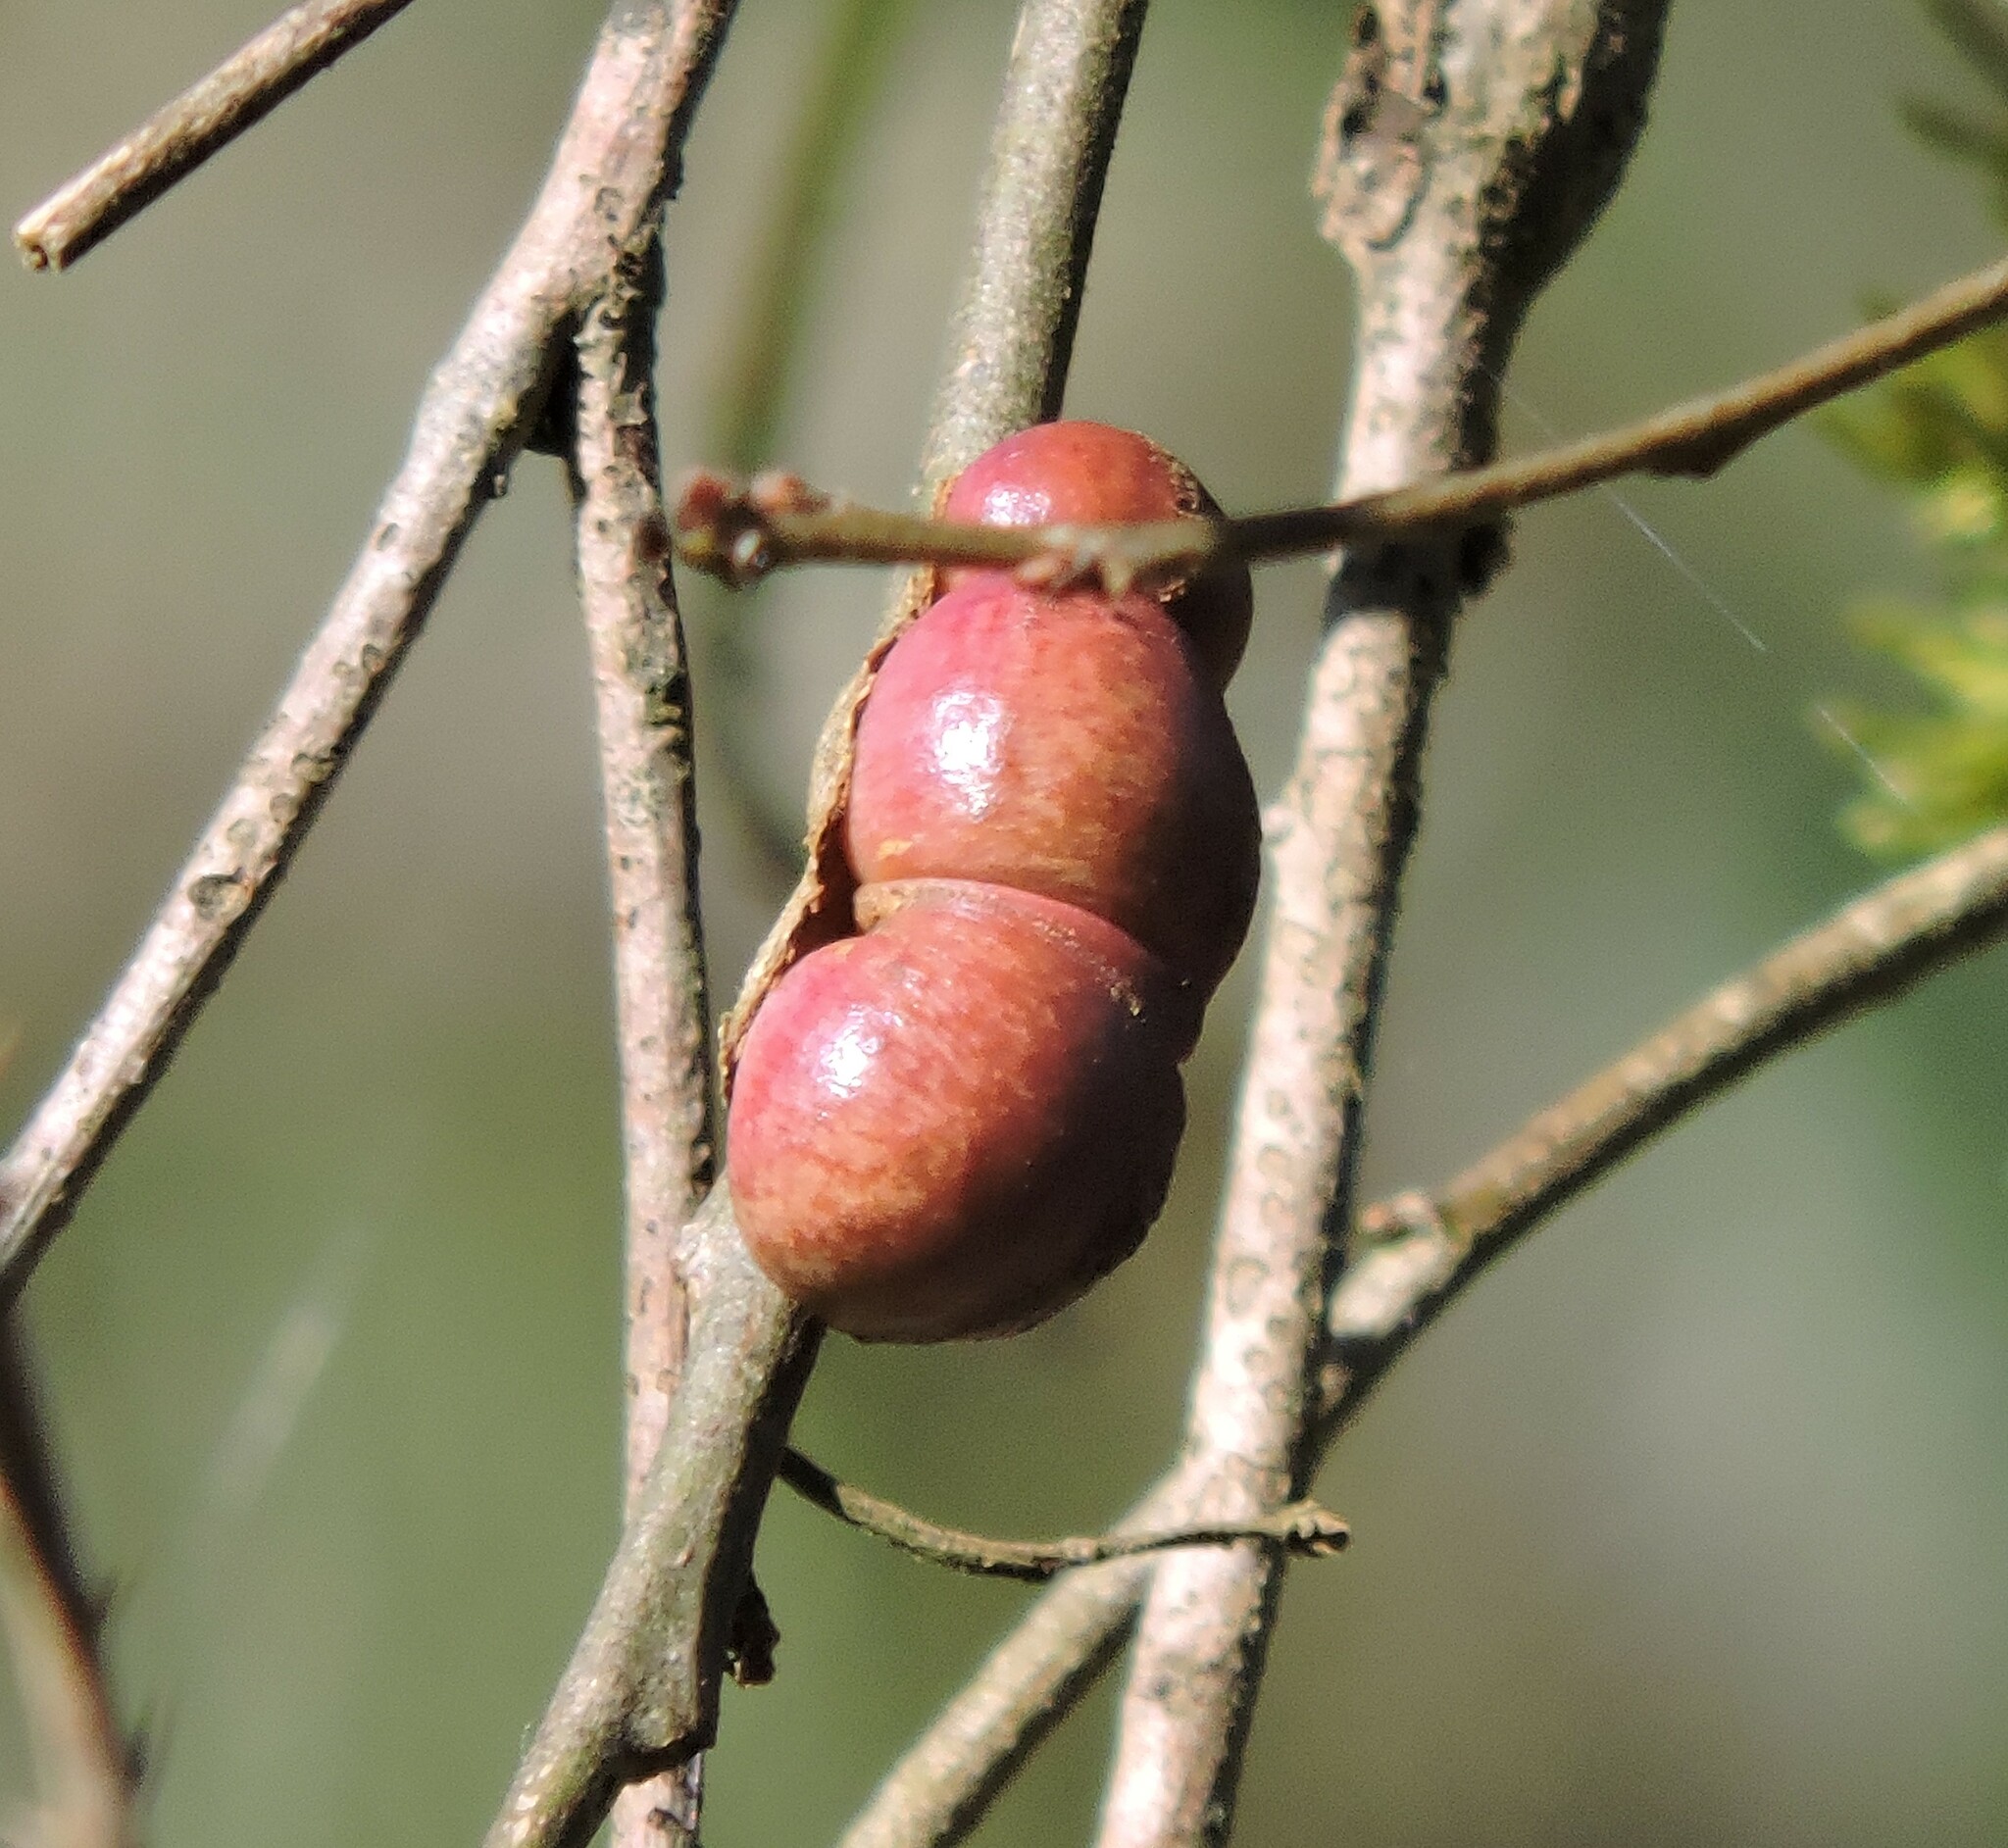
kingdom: Animalia
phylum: Arthropoda
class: Insecta
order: Hymenoptera
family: Cynipidae
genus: Andricus
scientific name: Andricus quercuscalifornicus
